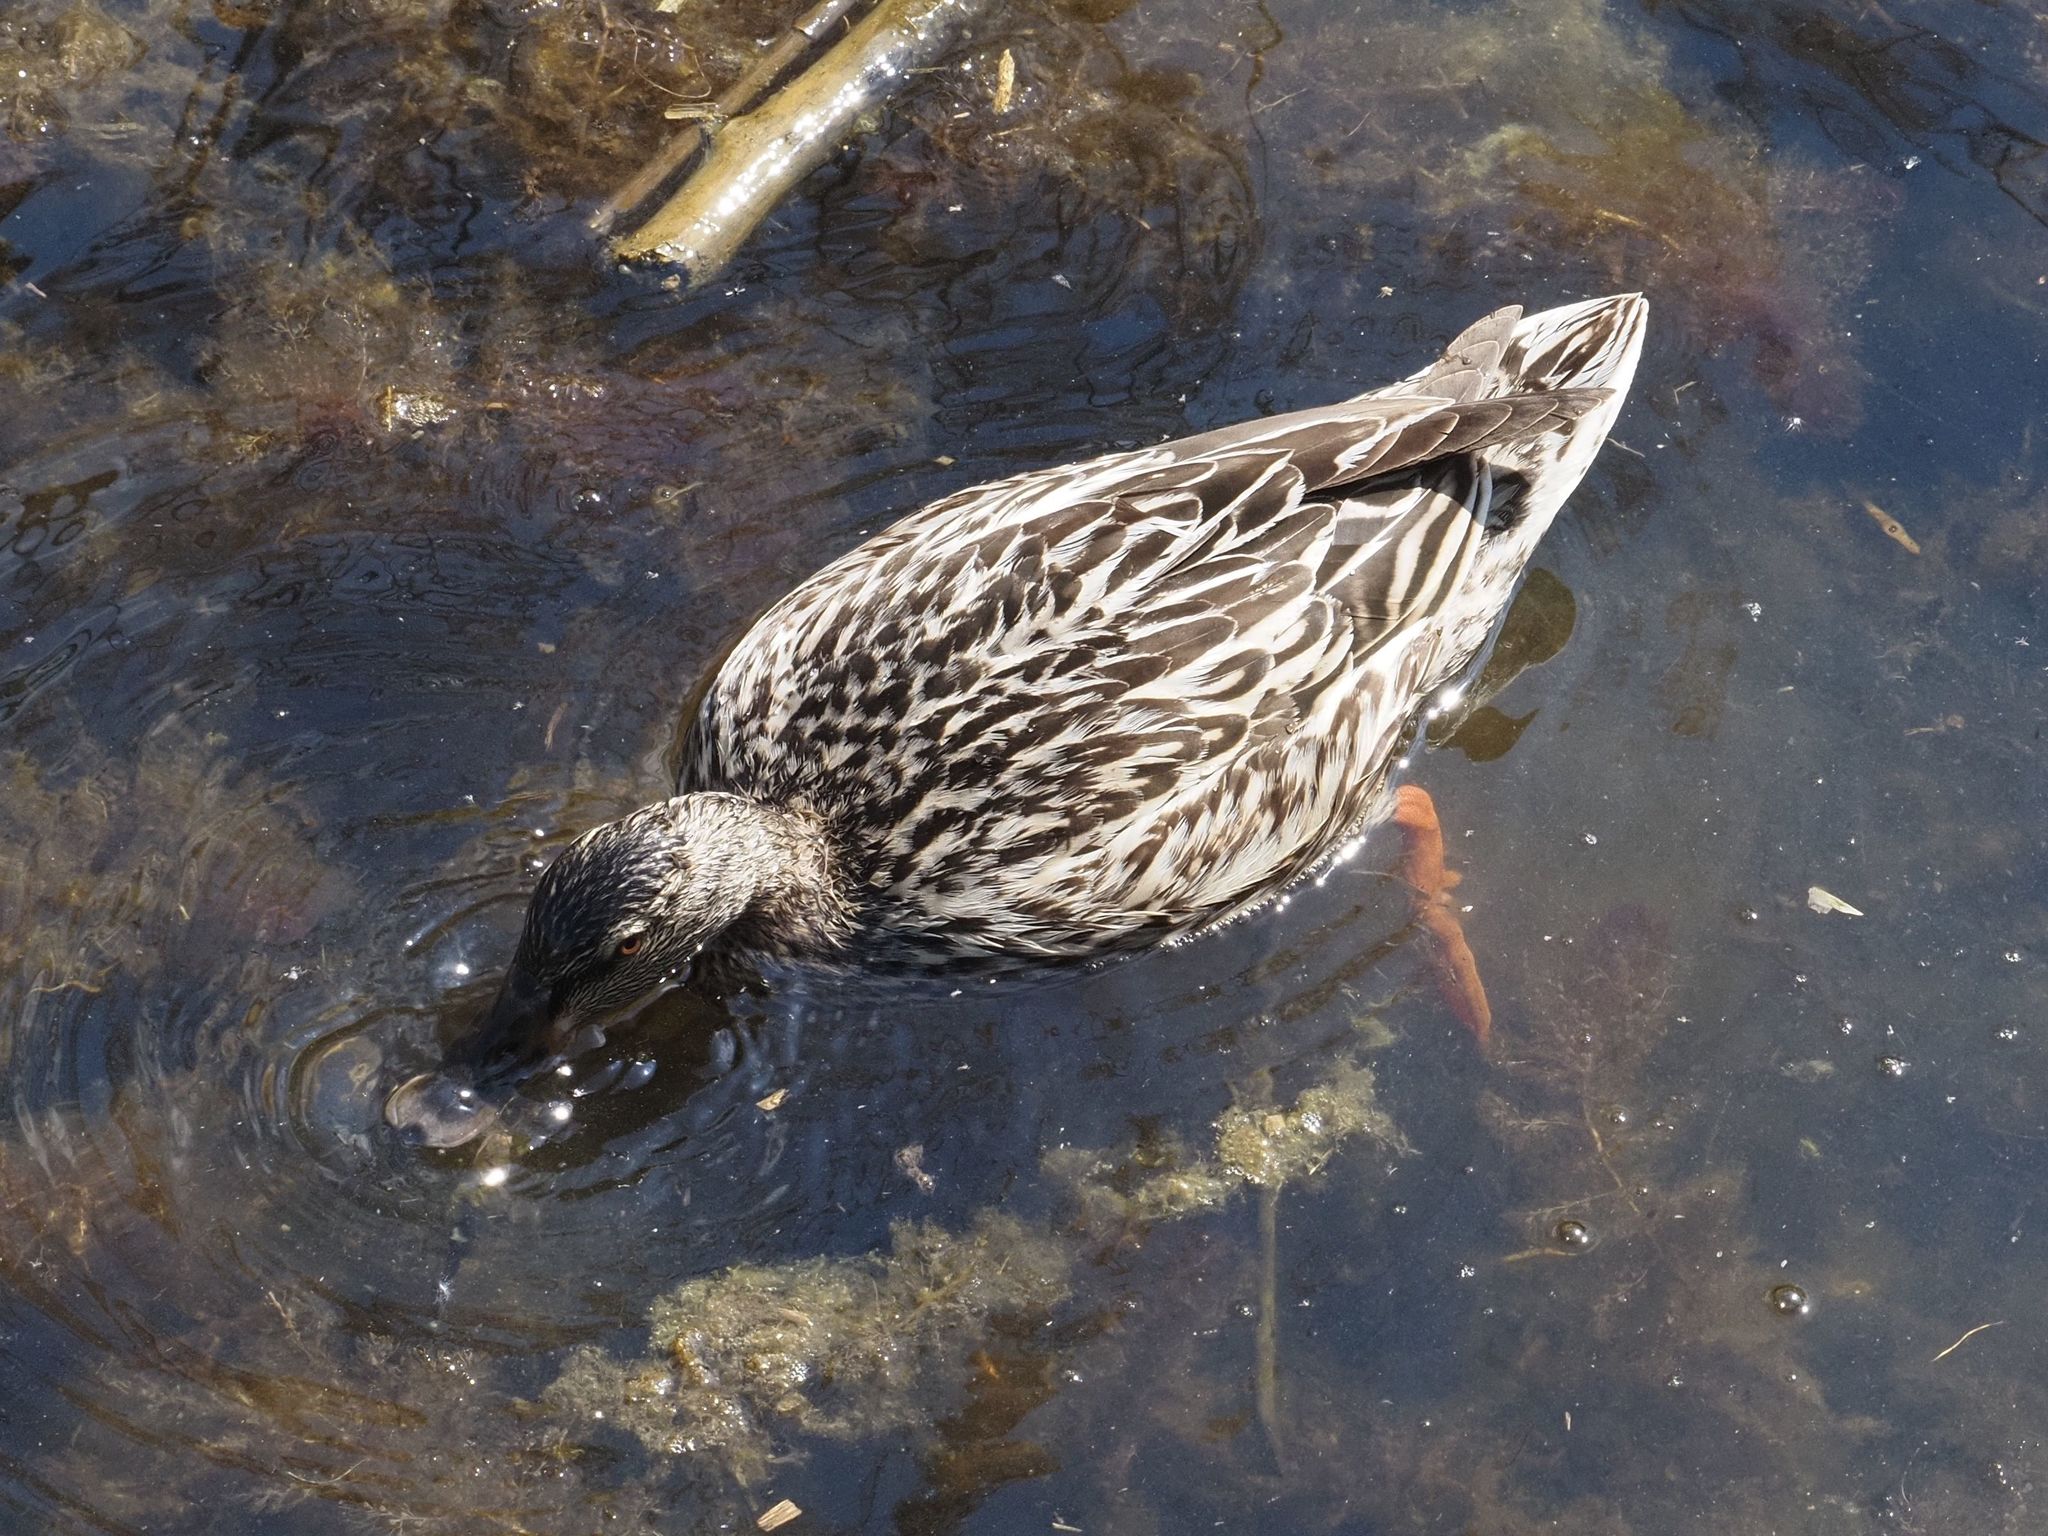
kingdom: Animalia
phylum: Chordata
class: Aves
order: Anseriformes
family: Anatidae
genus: Anas
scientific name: Anas platyrhynchos
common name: Mallard
